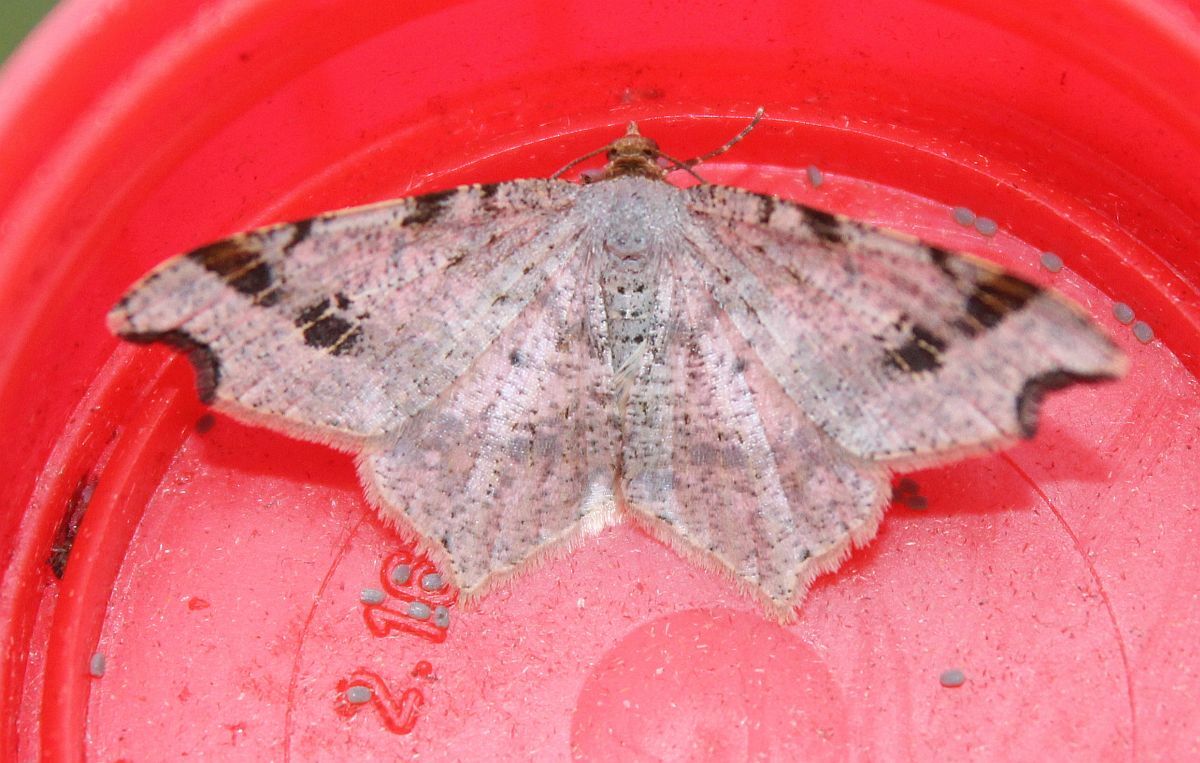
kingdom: Animalia
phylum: Arthropoda
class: Insecta
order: Lepidoptera
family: Geometridae
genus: Macaria
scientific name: Macaria alternata
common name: Sharp-angled peacock
